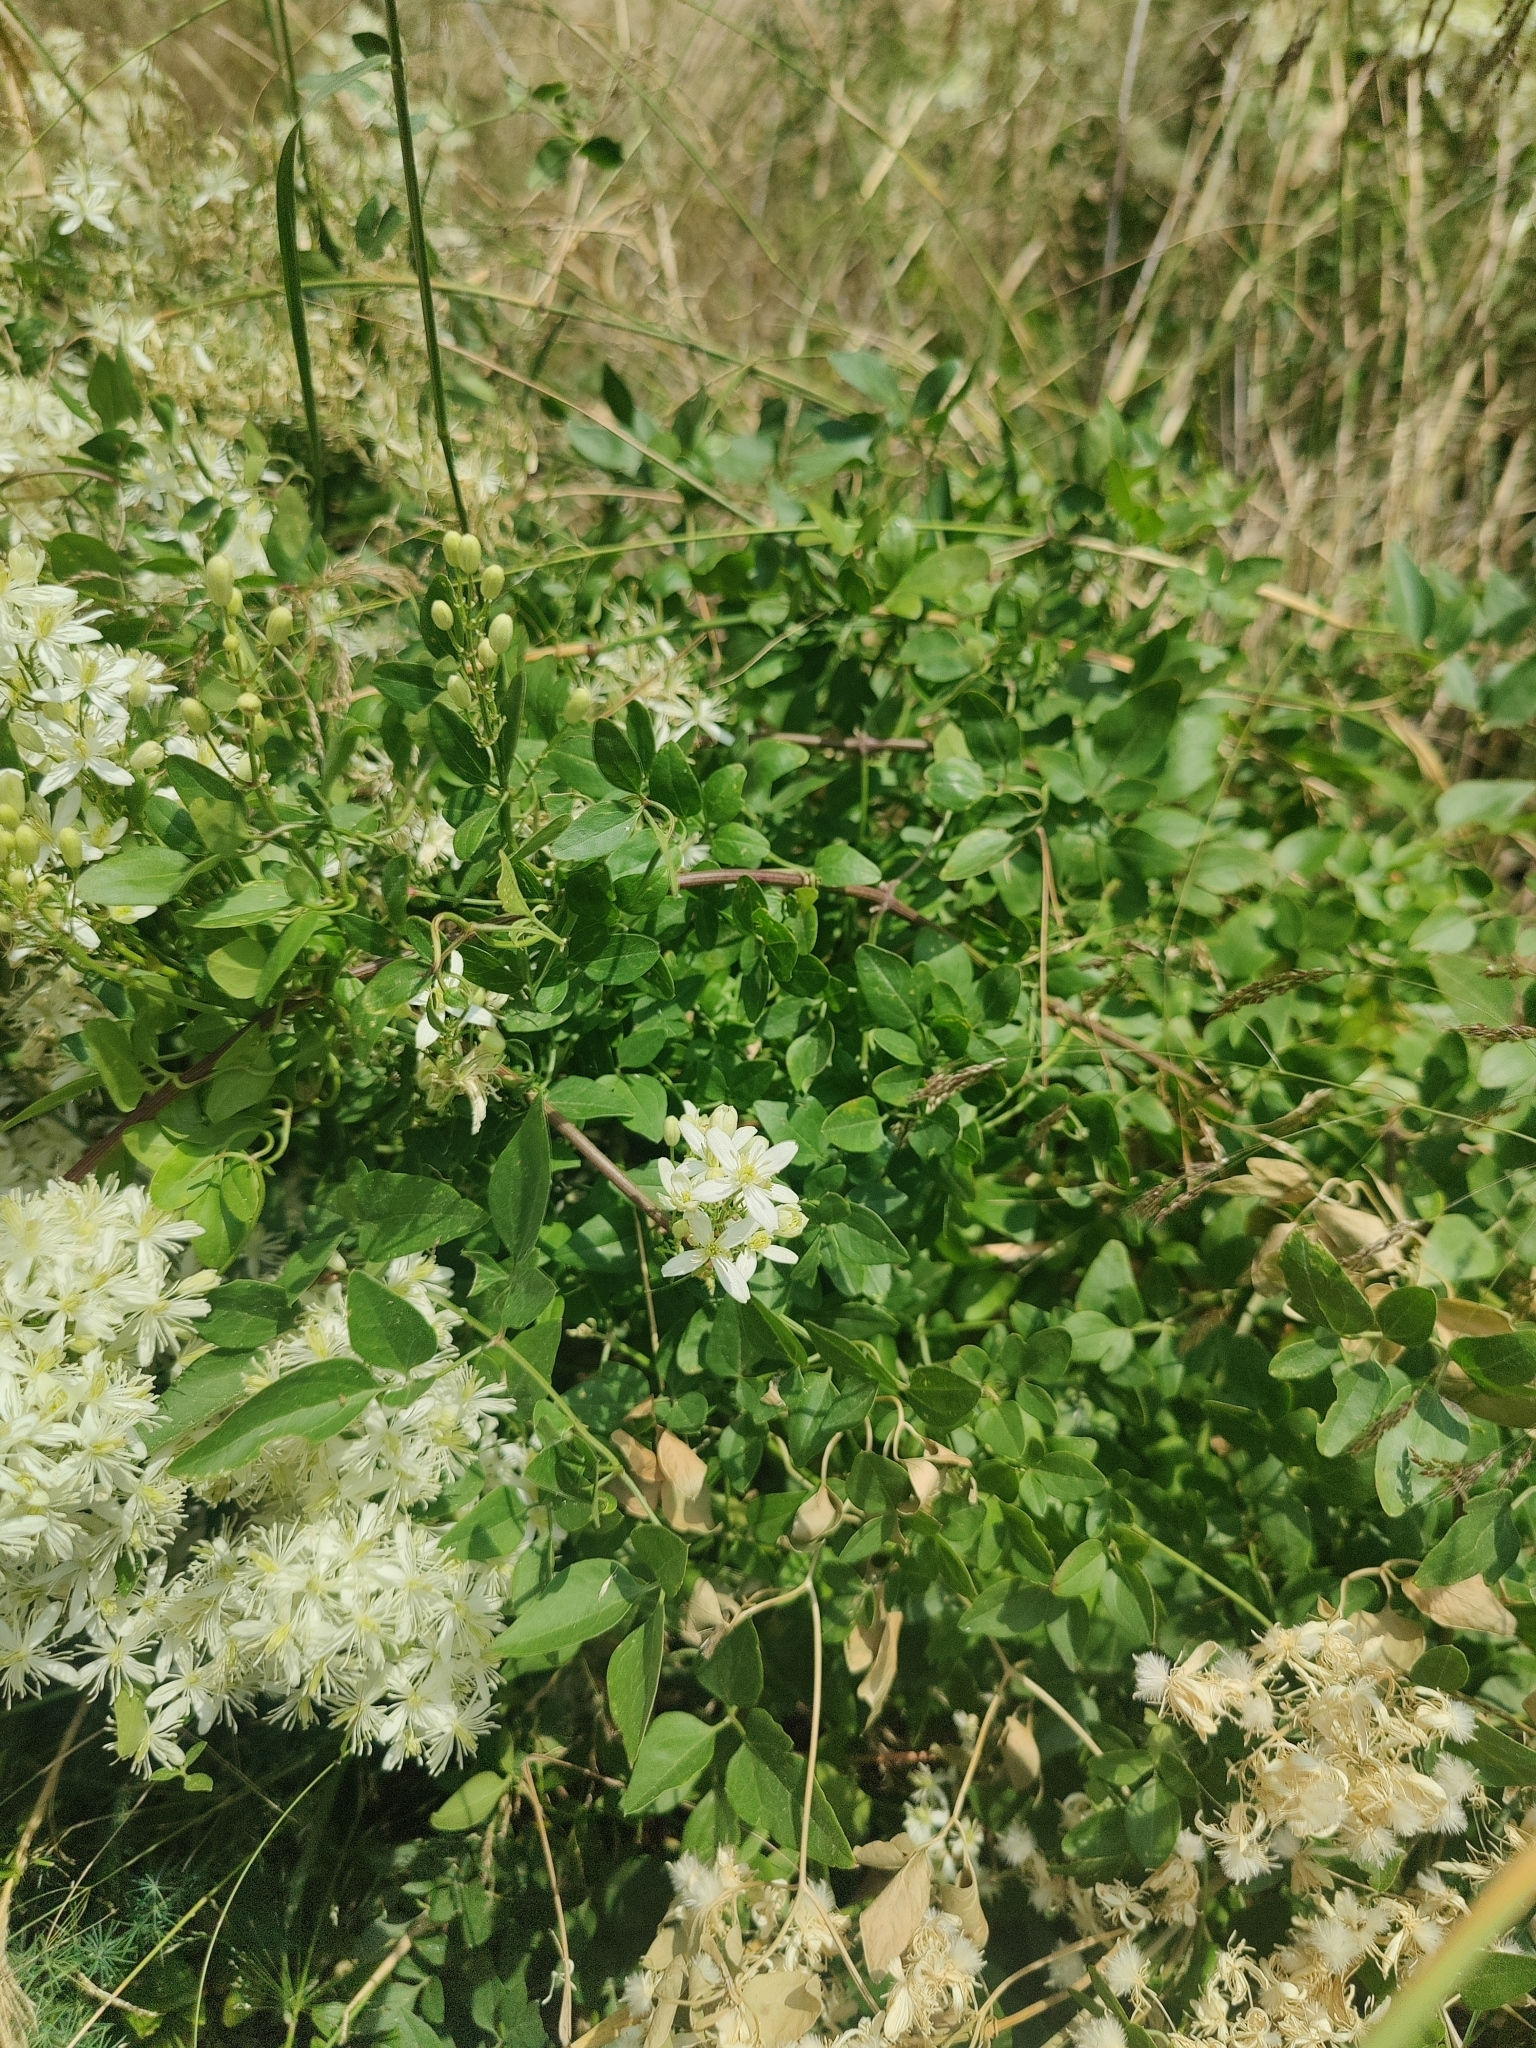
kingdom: Plantae
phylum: Tracheophyta
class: Magnoliopsida
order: Ranunculales
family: Ranunculaceae
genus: Clematis
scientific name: Clematis flammula
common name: Virgin's-bower
